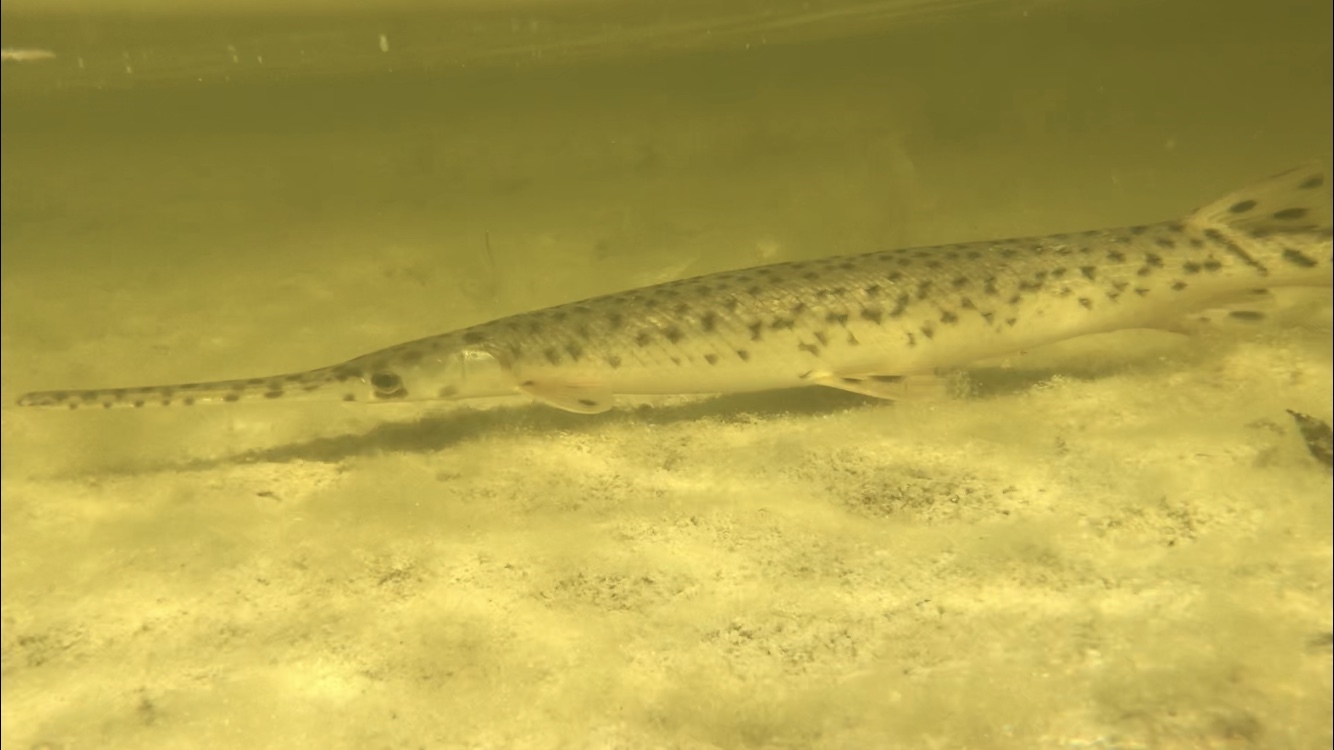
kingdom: Animalia
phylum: Chordata
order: Lepisosteiformes
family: Lepisosteidae
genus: Lepisosteus
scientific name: Lepisosteus osseus
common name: Longnose gar
